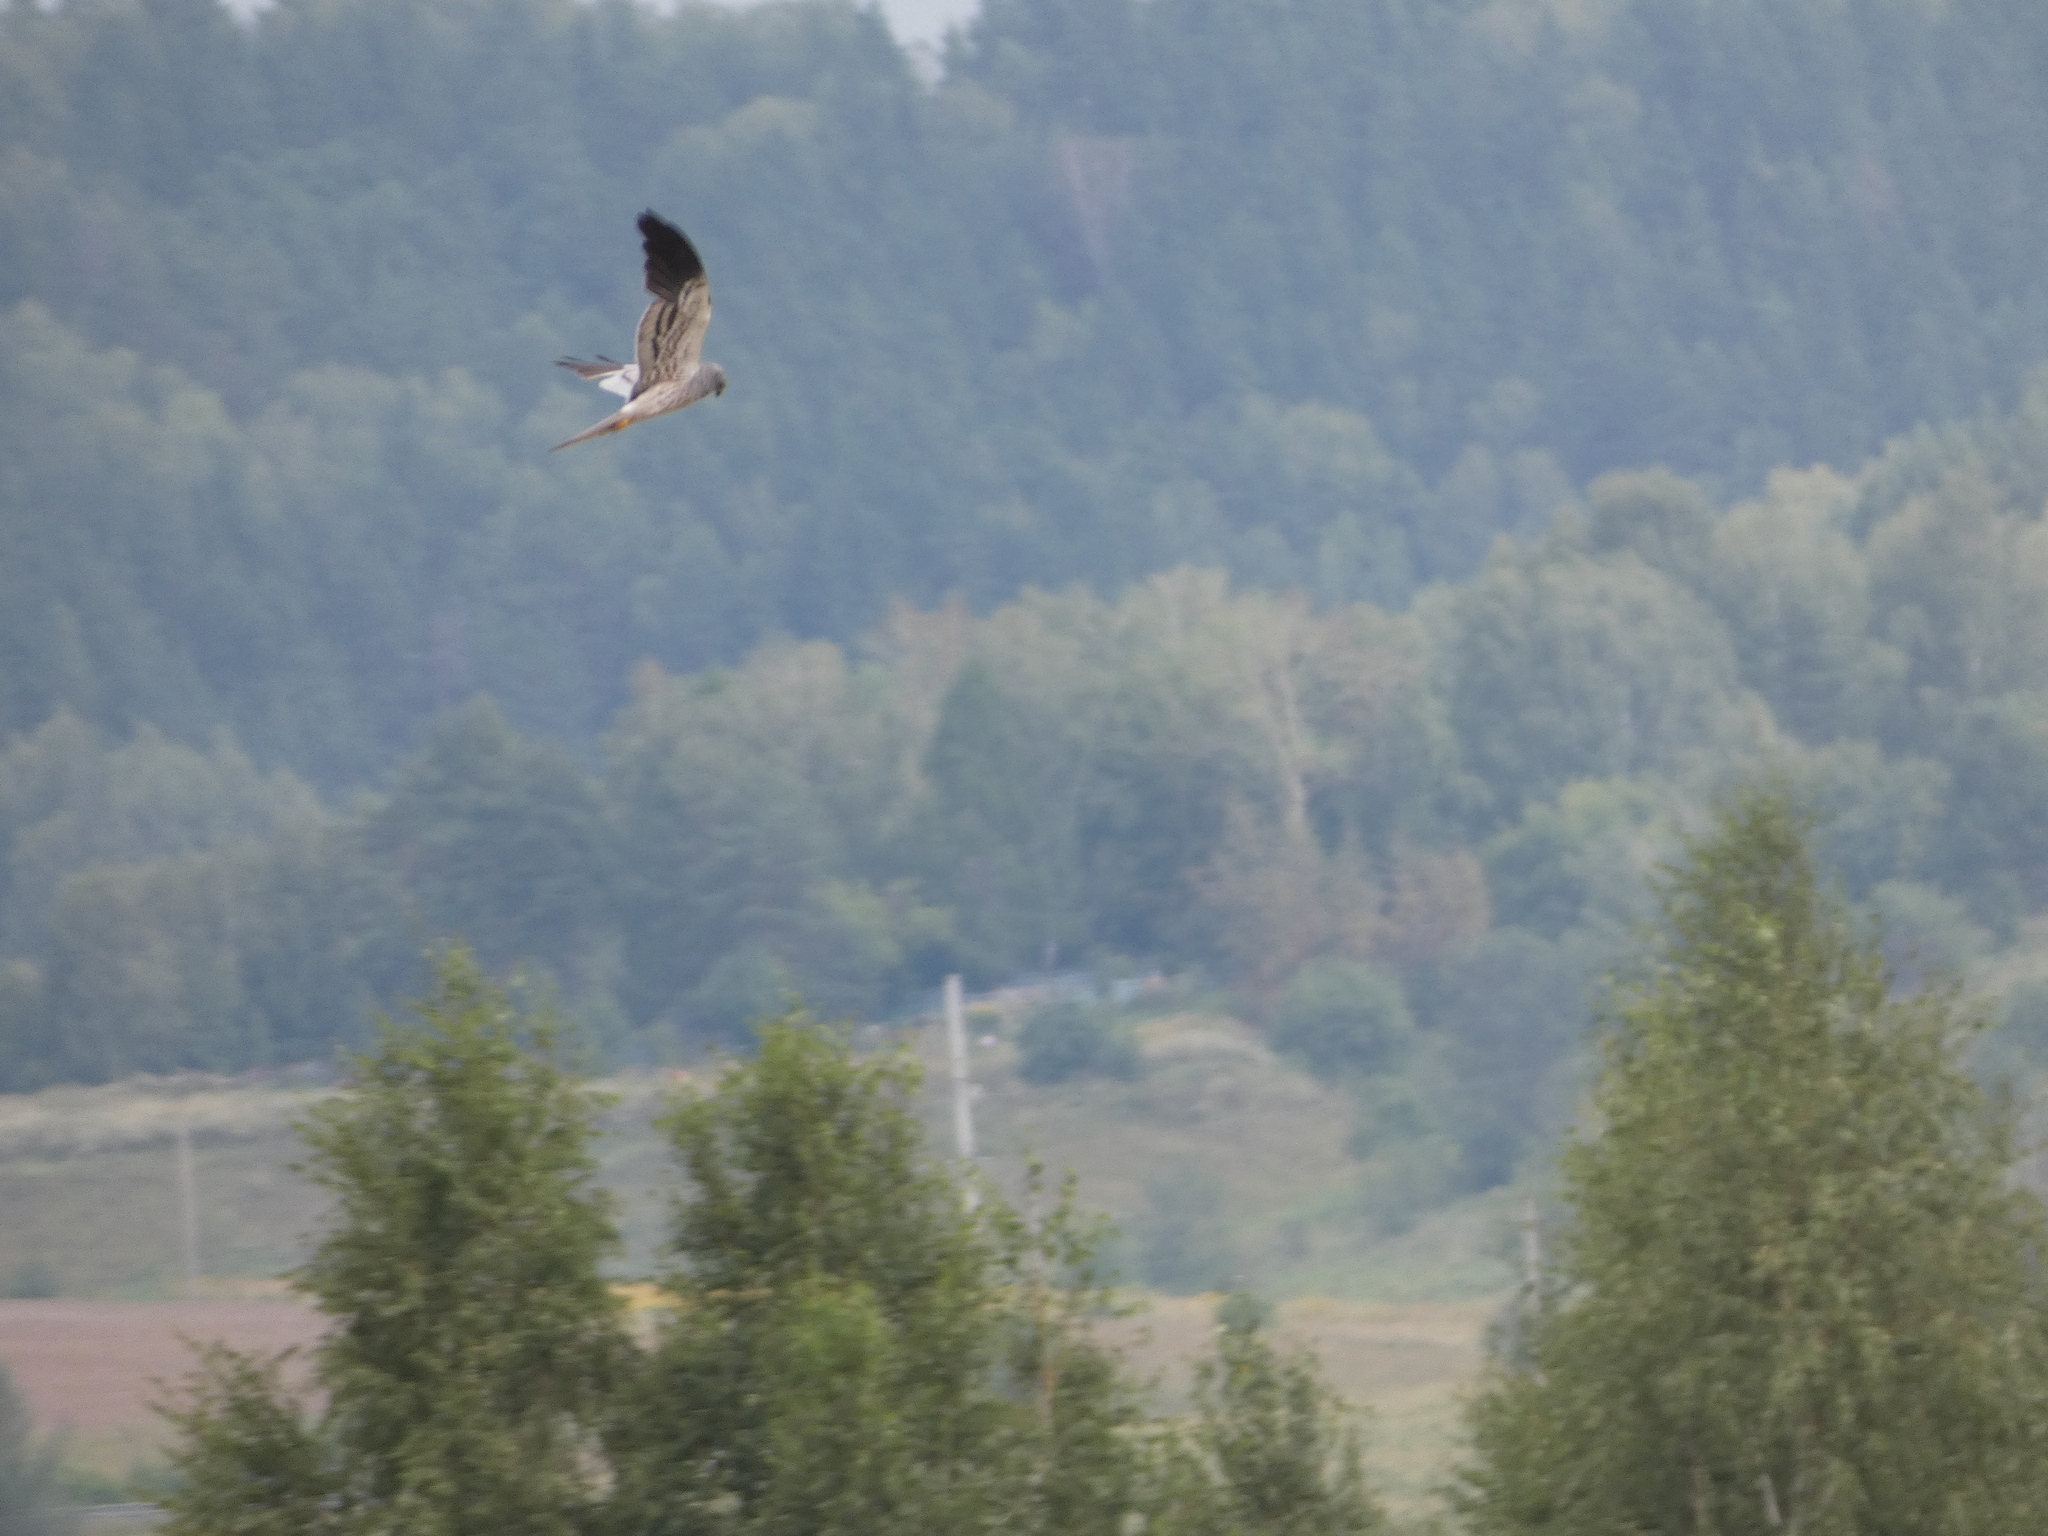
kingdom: Animalia
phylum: Chordata
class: Aves
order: Accipitriformes
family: Accipitridae
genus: Circus
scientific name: Circus pygargus
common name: Montagu's harrier
